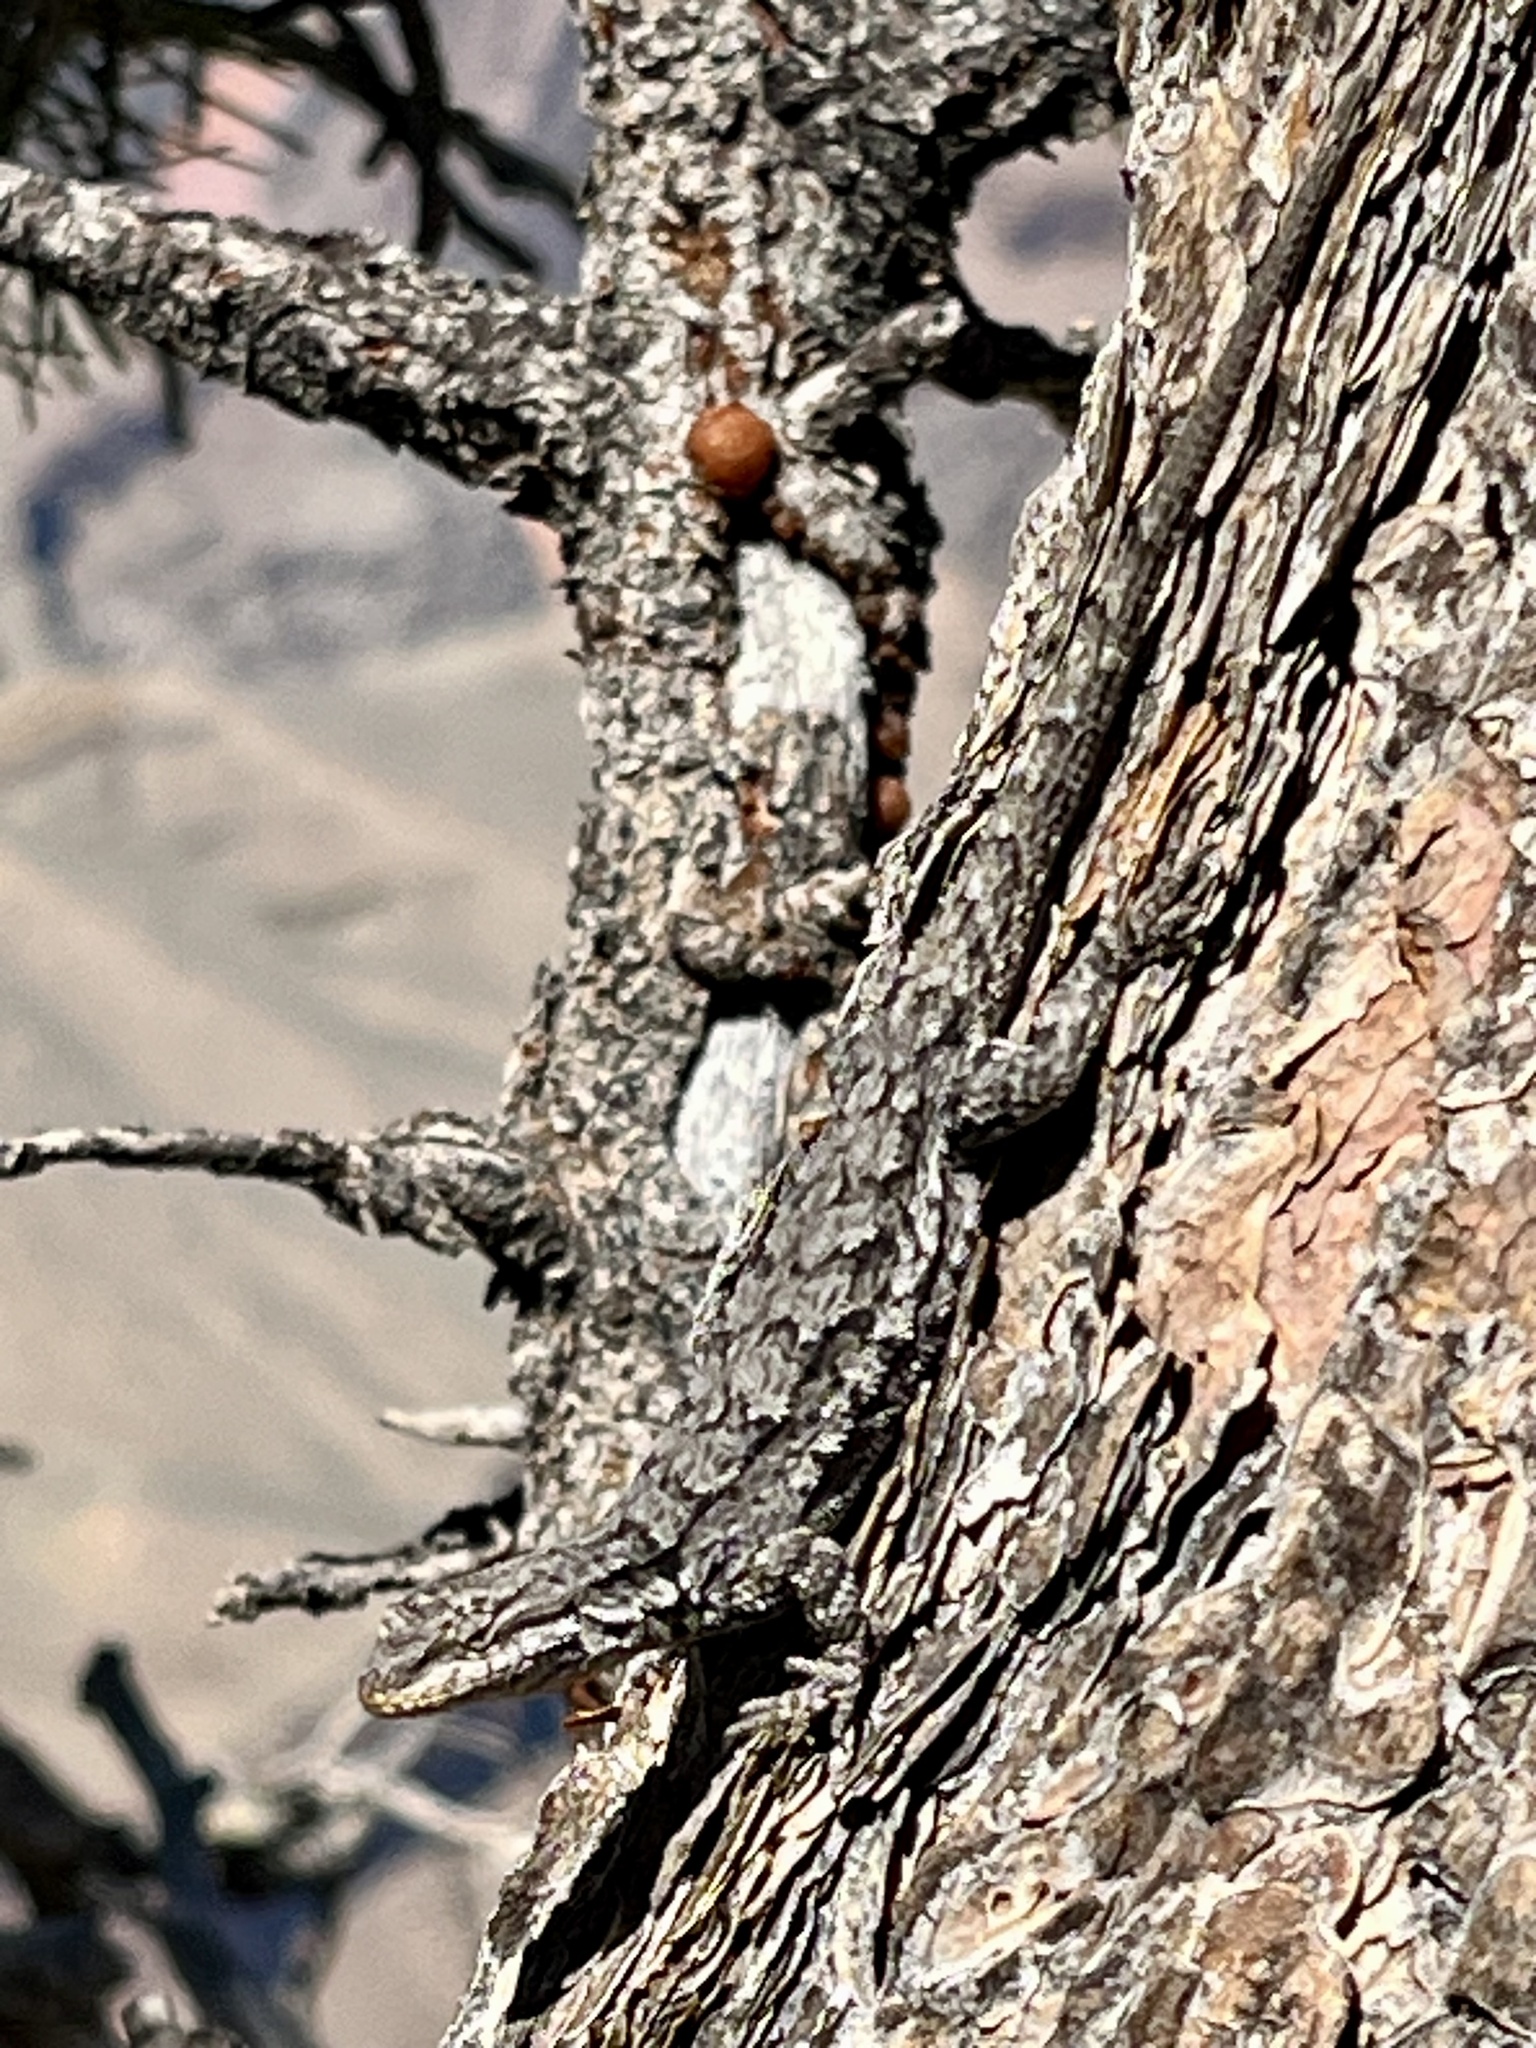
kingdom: Animalia
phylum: Chordata
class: Squamata
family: Phrynosomatidae
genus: Urosaurus
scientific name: Urosaurus ornatus
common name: Ornate tree lizard
